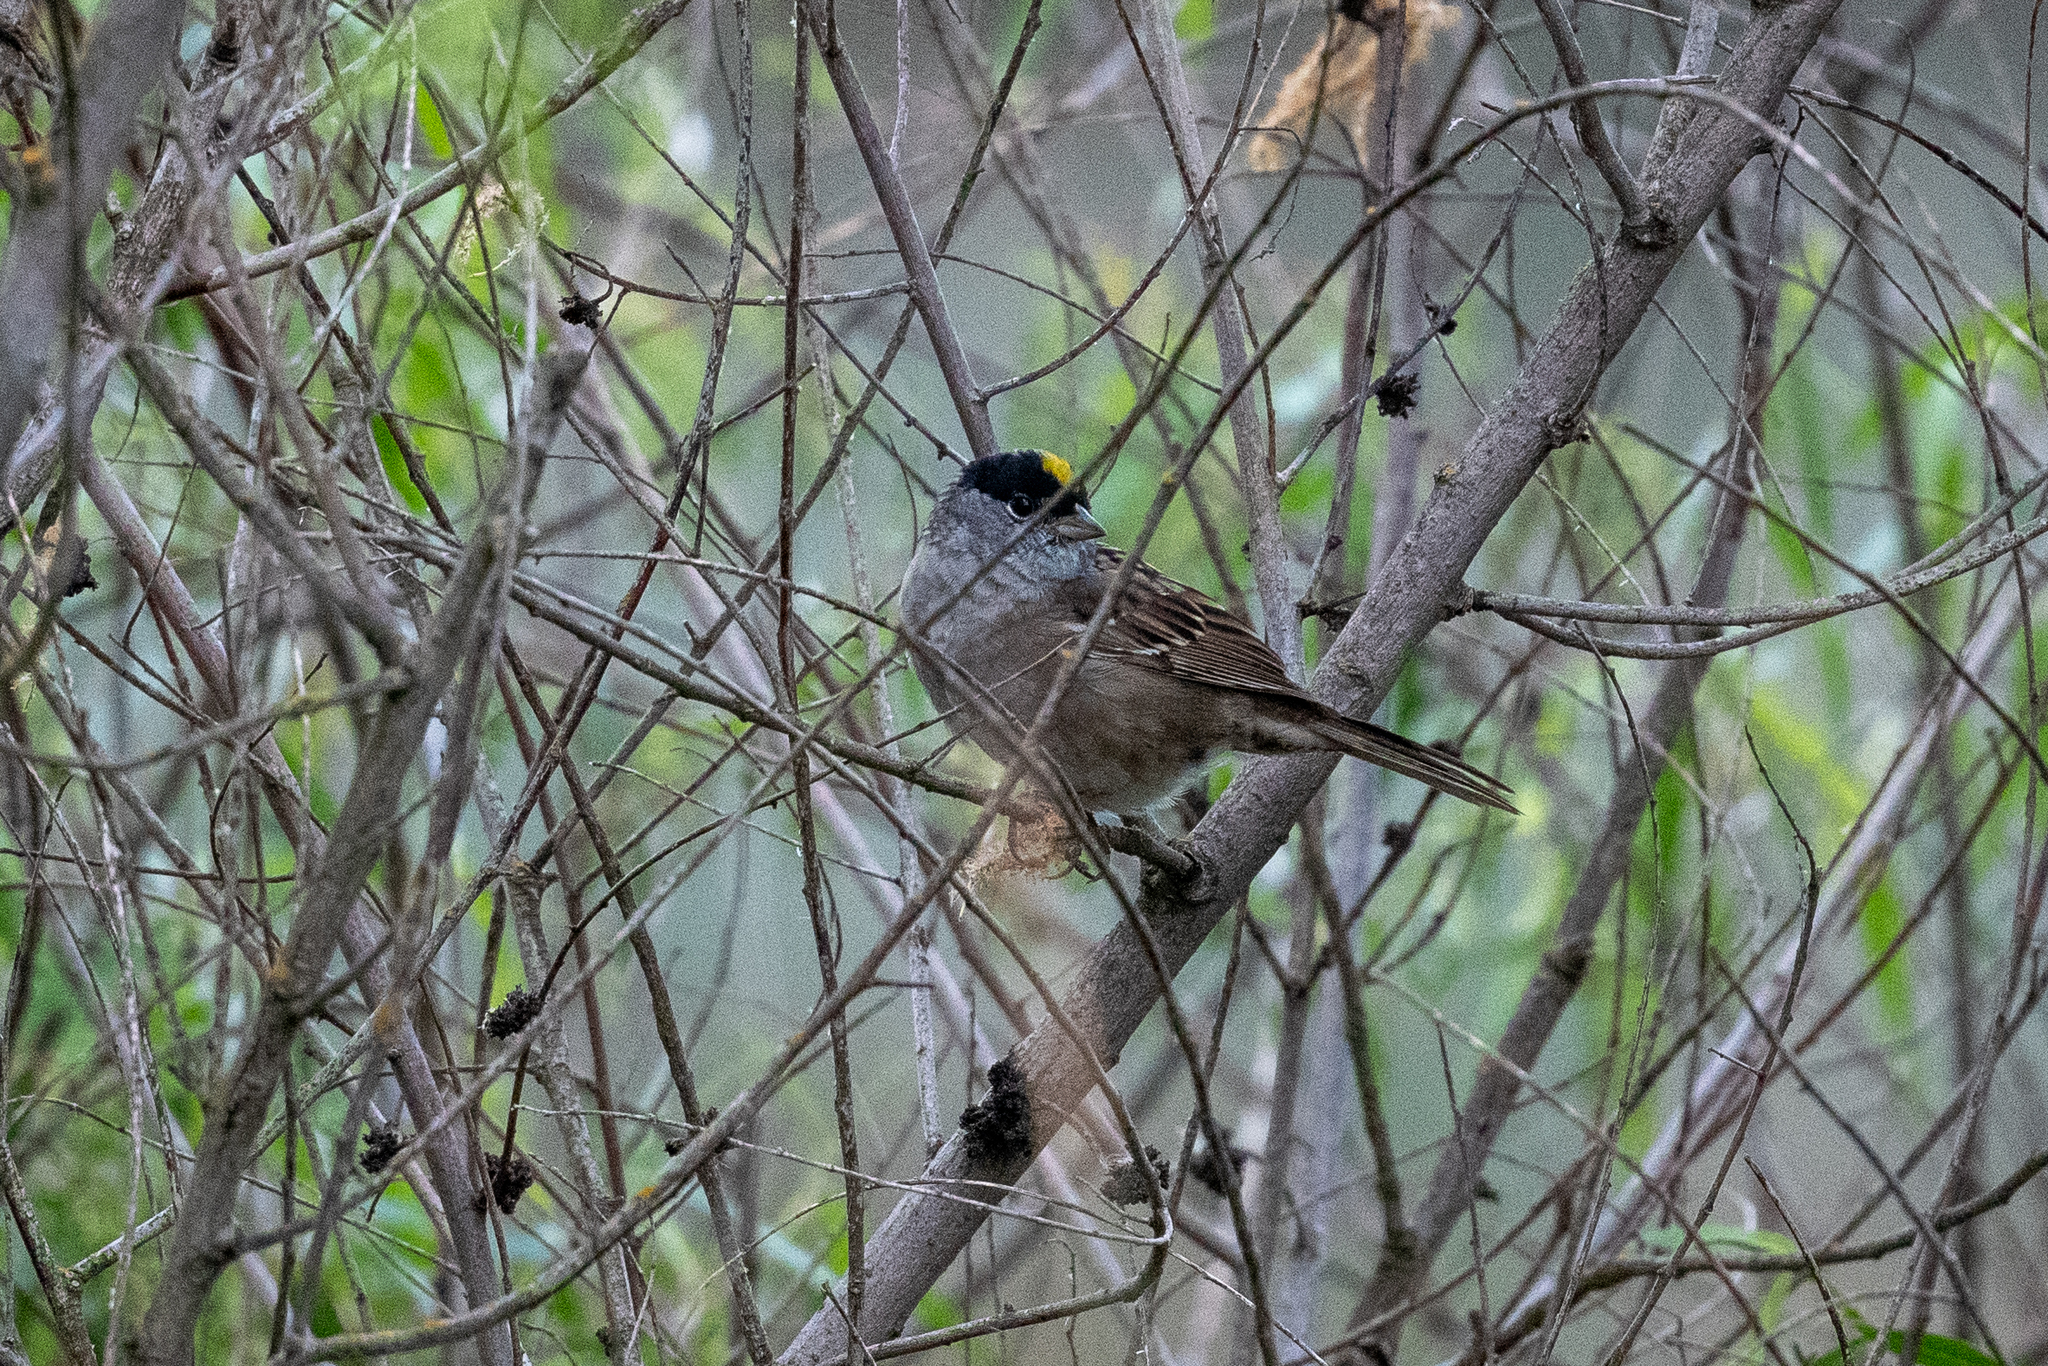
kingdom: Animalia
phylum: Chordata
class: Aves
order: Passeriformes
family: Passerellidae
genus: Zonotrichia
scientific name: Zonotrichia atricapilla
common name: Golden-crowned sparrow
